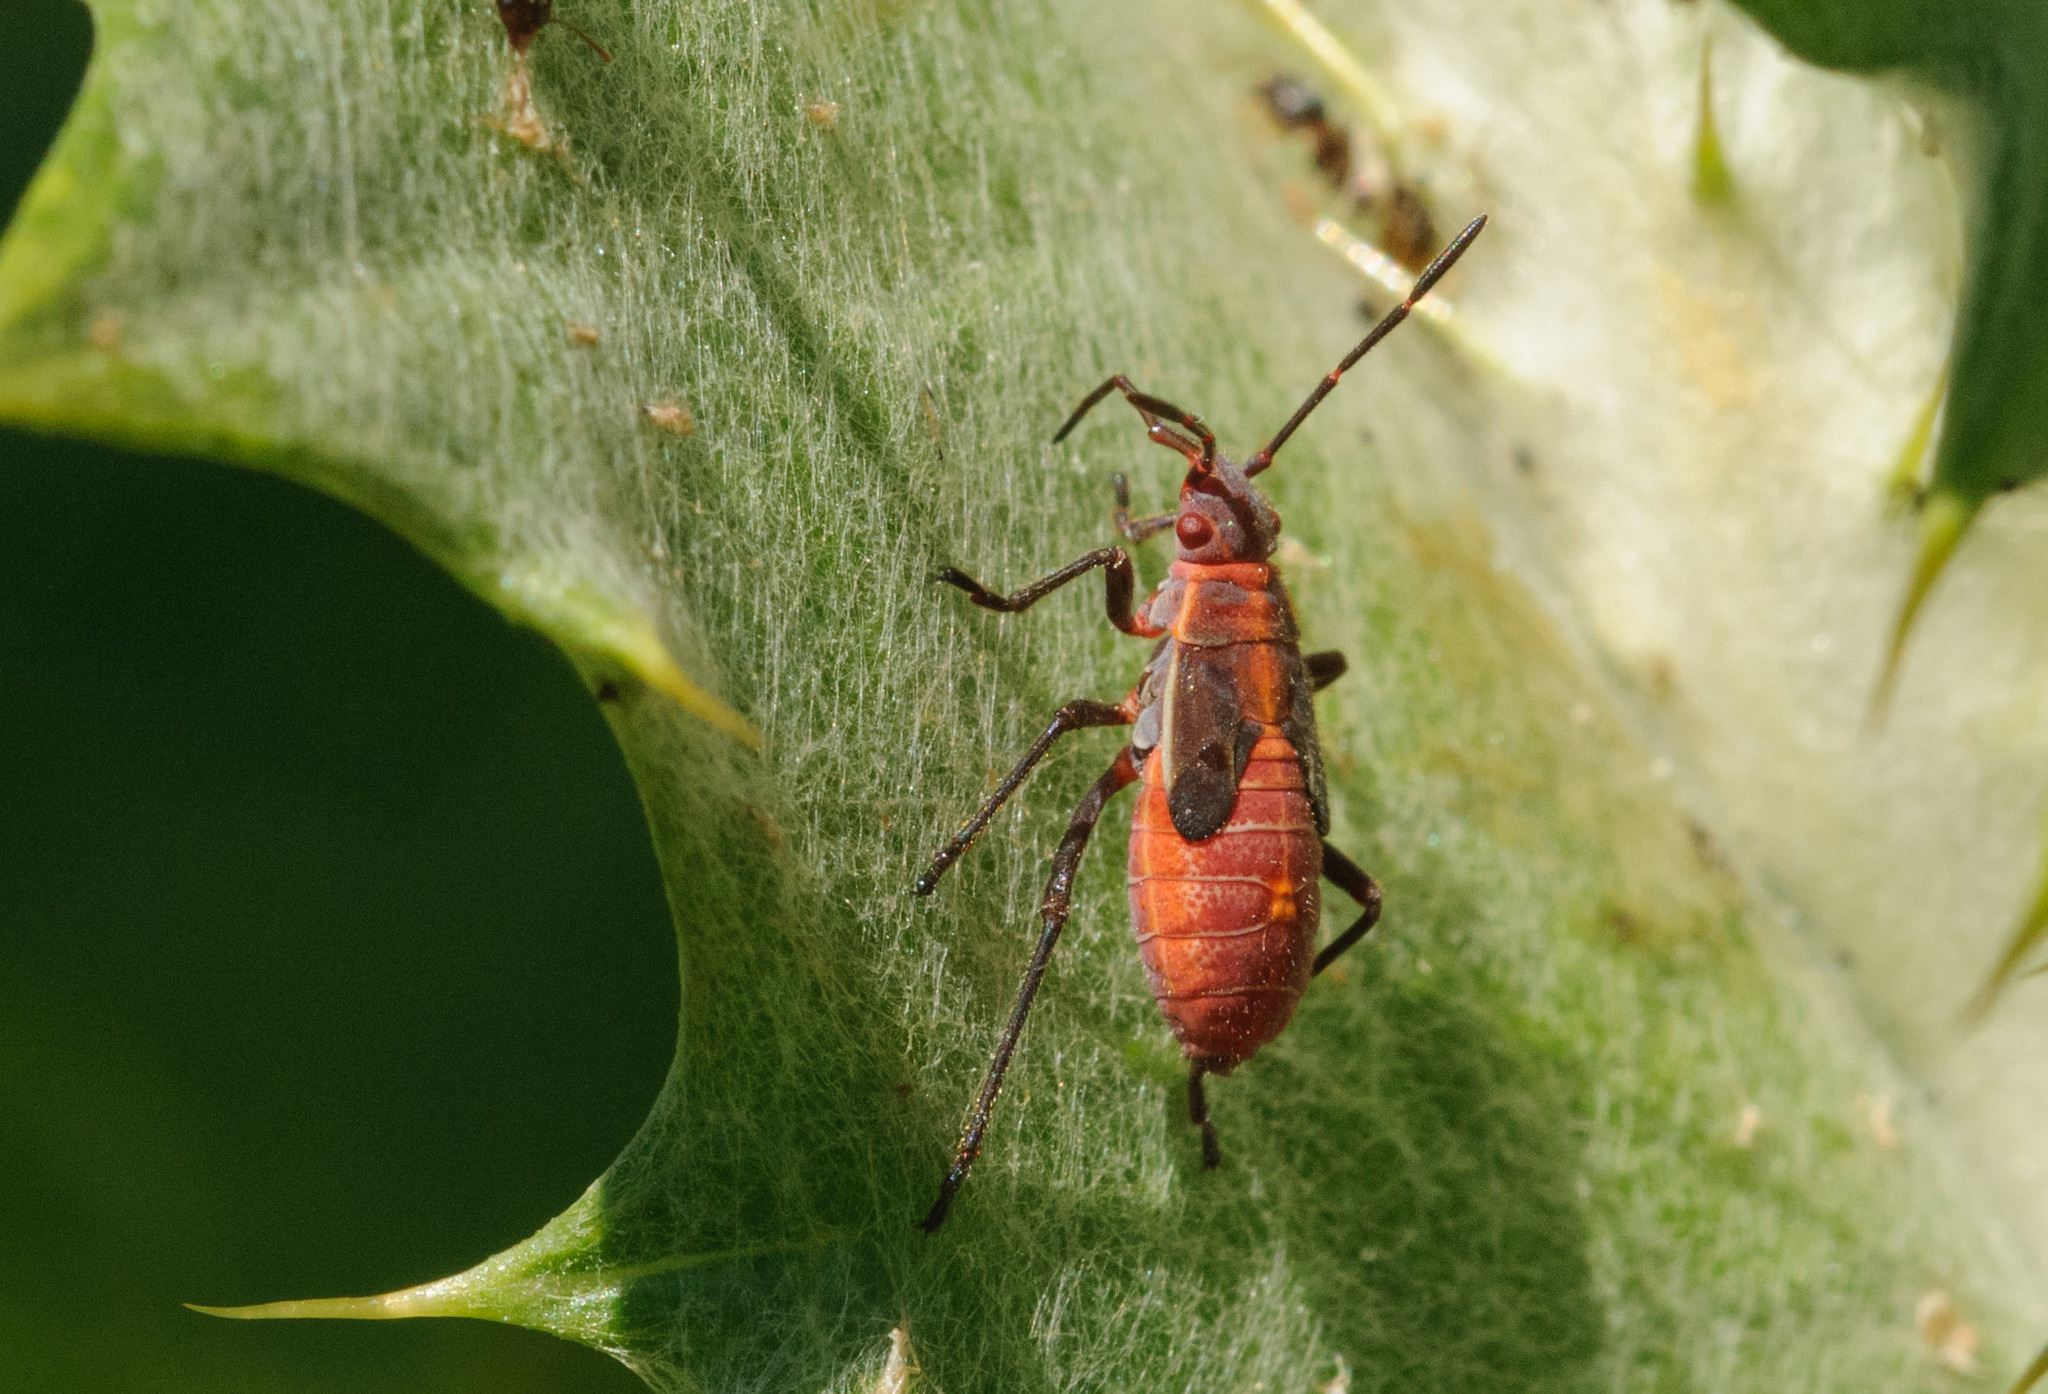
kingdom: Animalia
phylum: Arthropoda
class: Insecta
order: Hemiptera
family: Rhopalidae
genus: Boisea
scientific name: Boisea
